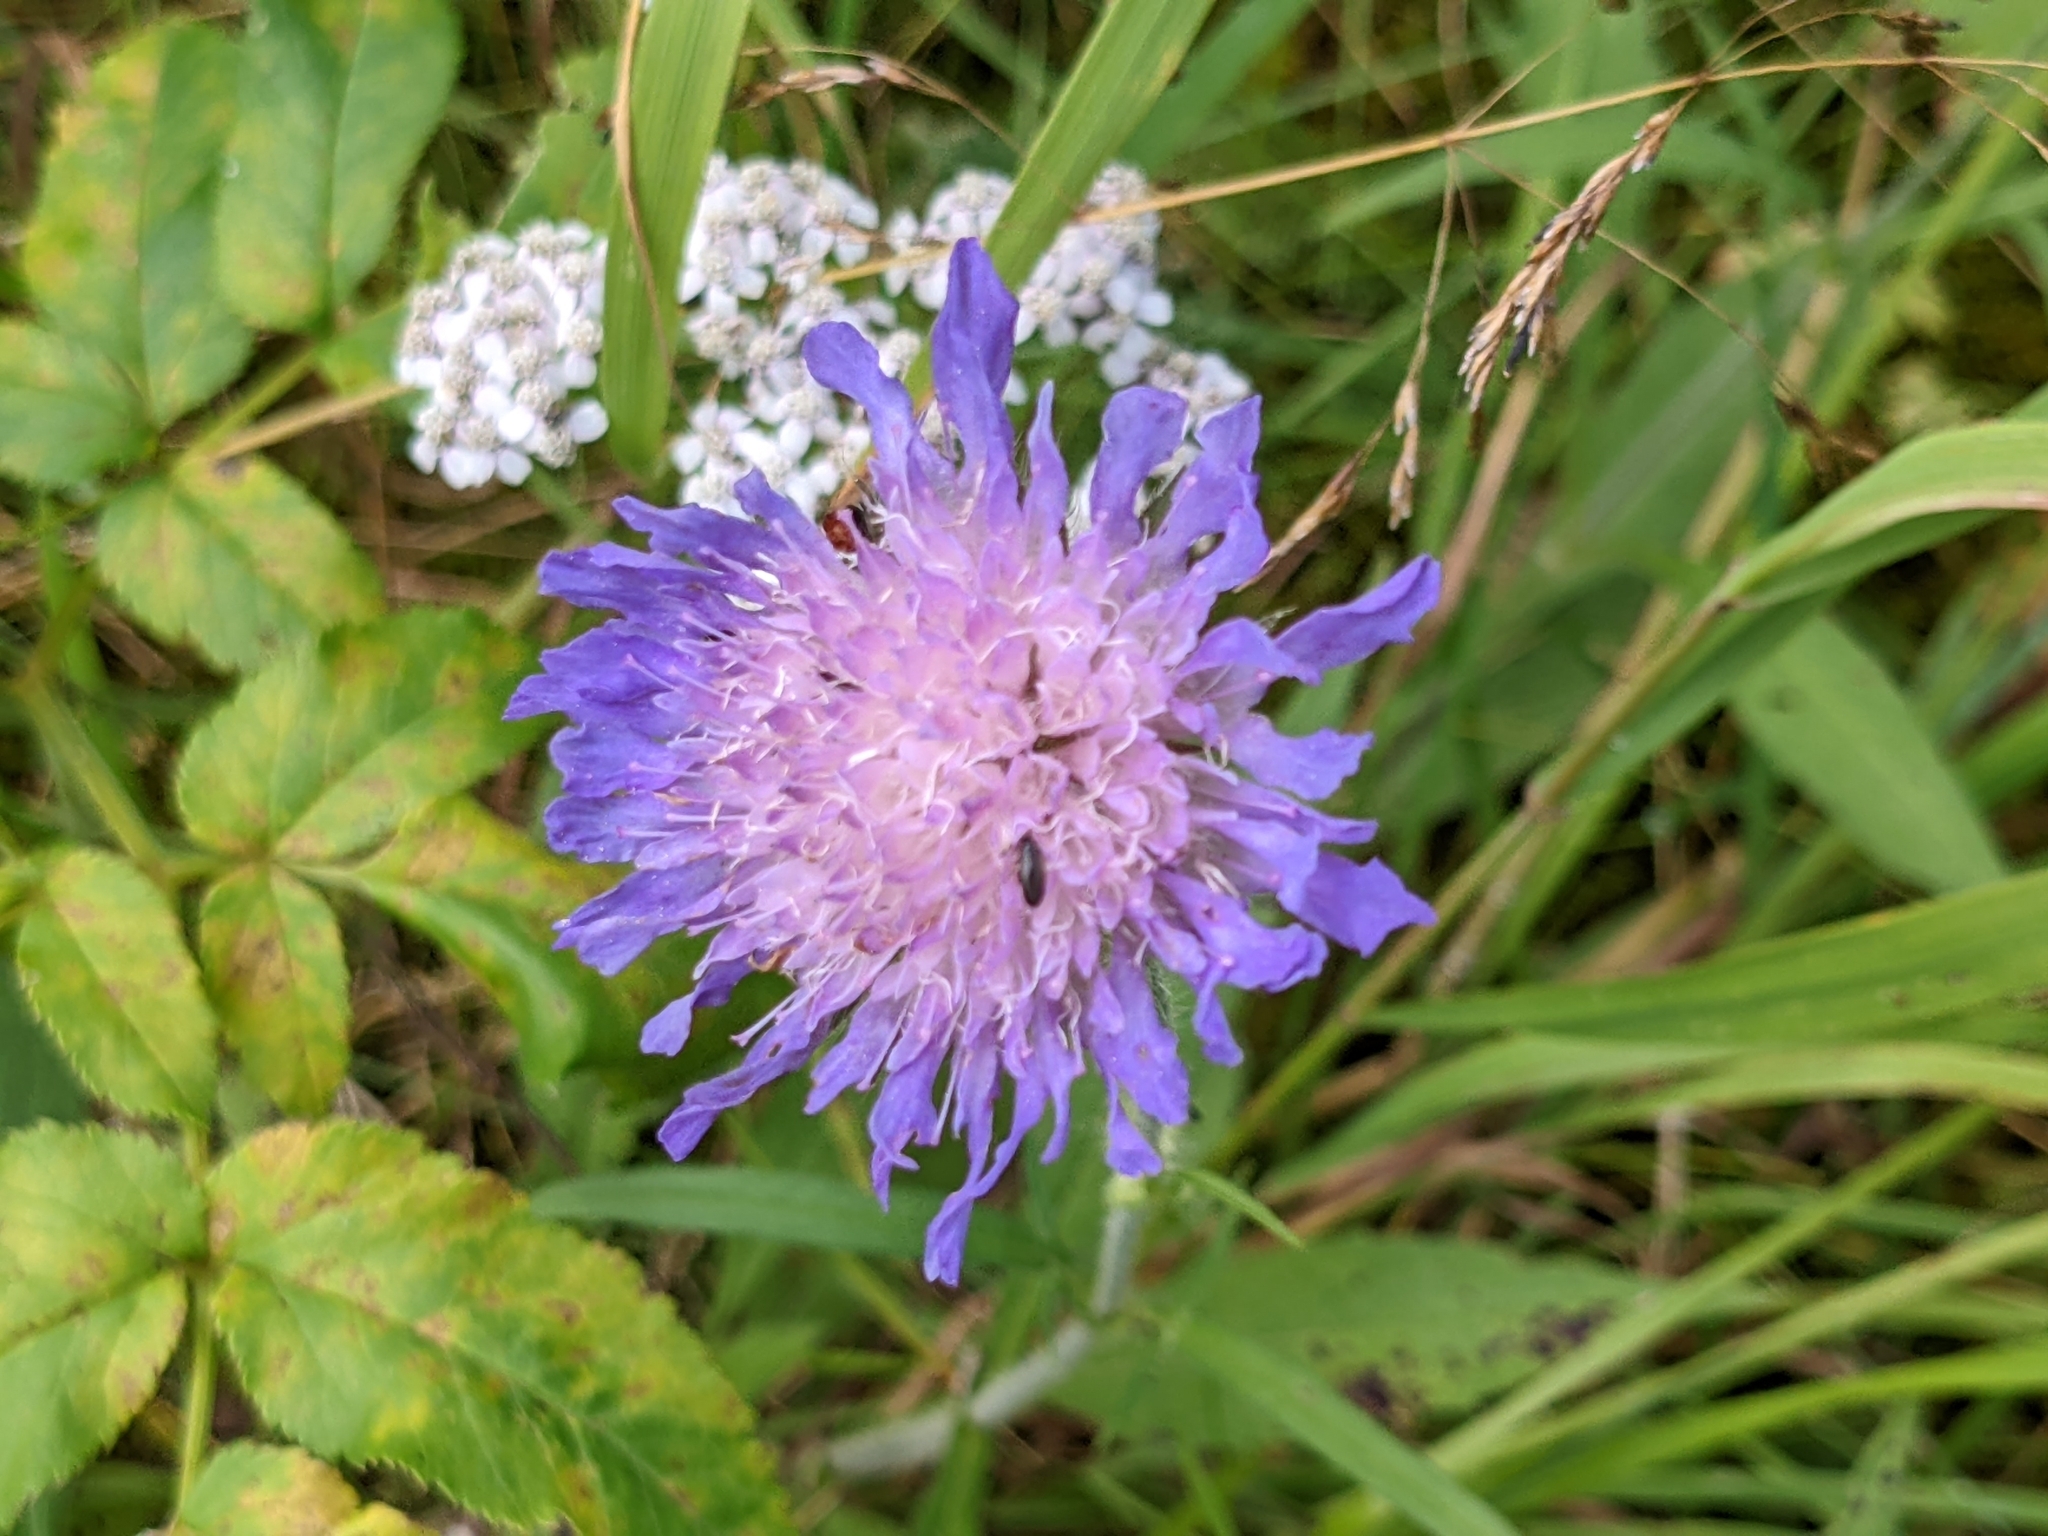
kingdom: Plantae
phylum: Tracheophyta
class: Magnoliopsida
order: Dipsacales
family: Caprifoliaceae
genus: Knautia
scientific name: Knautia arvensis
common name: Field scabiosa
